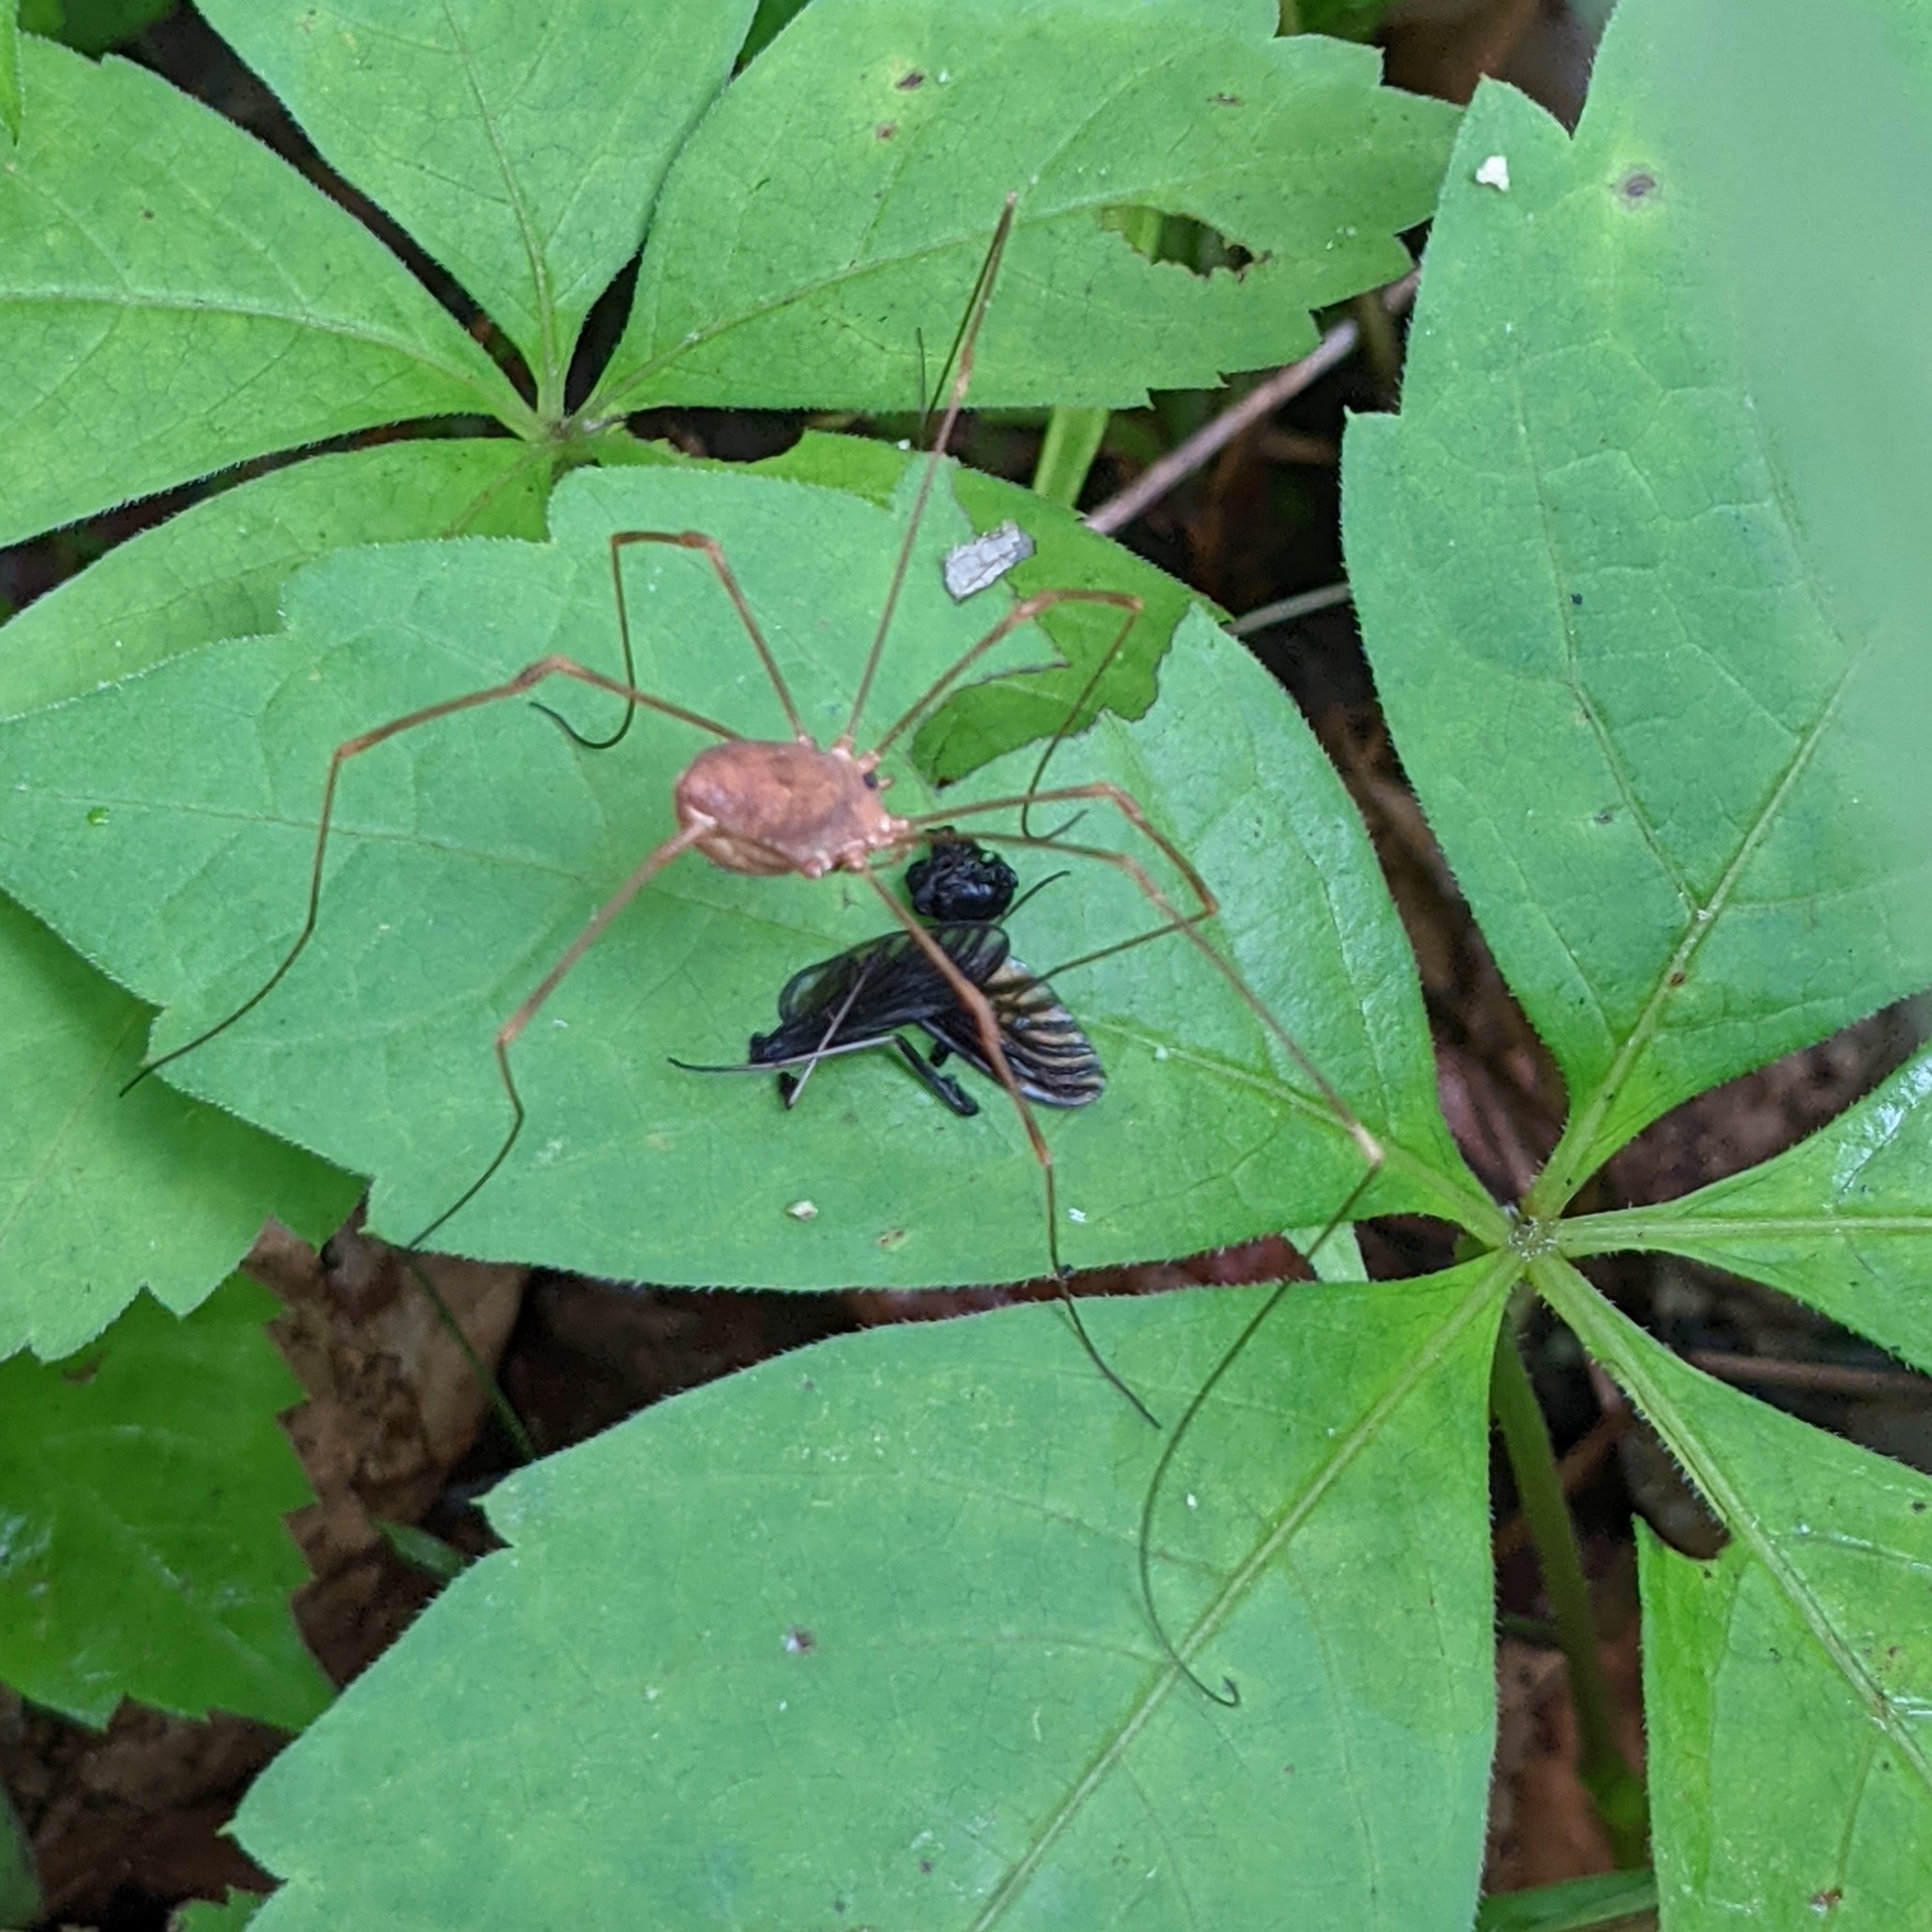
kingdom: Animalia
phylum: Arthropoda
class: Insecta
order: Diptera
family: Rhagionidae
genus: Chrysopilus
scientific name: Chrysopilus thoracicus
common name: Golden-backed snipe fly
